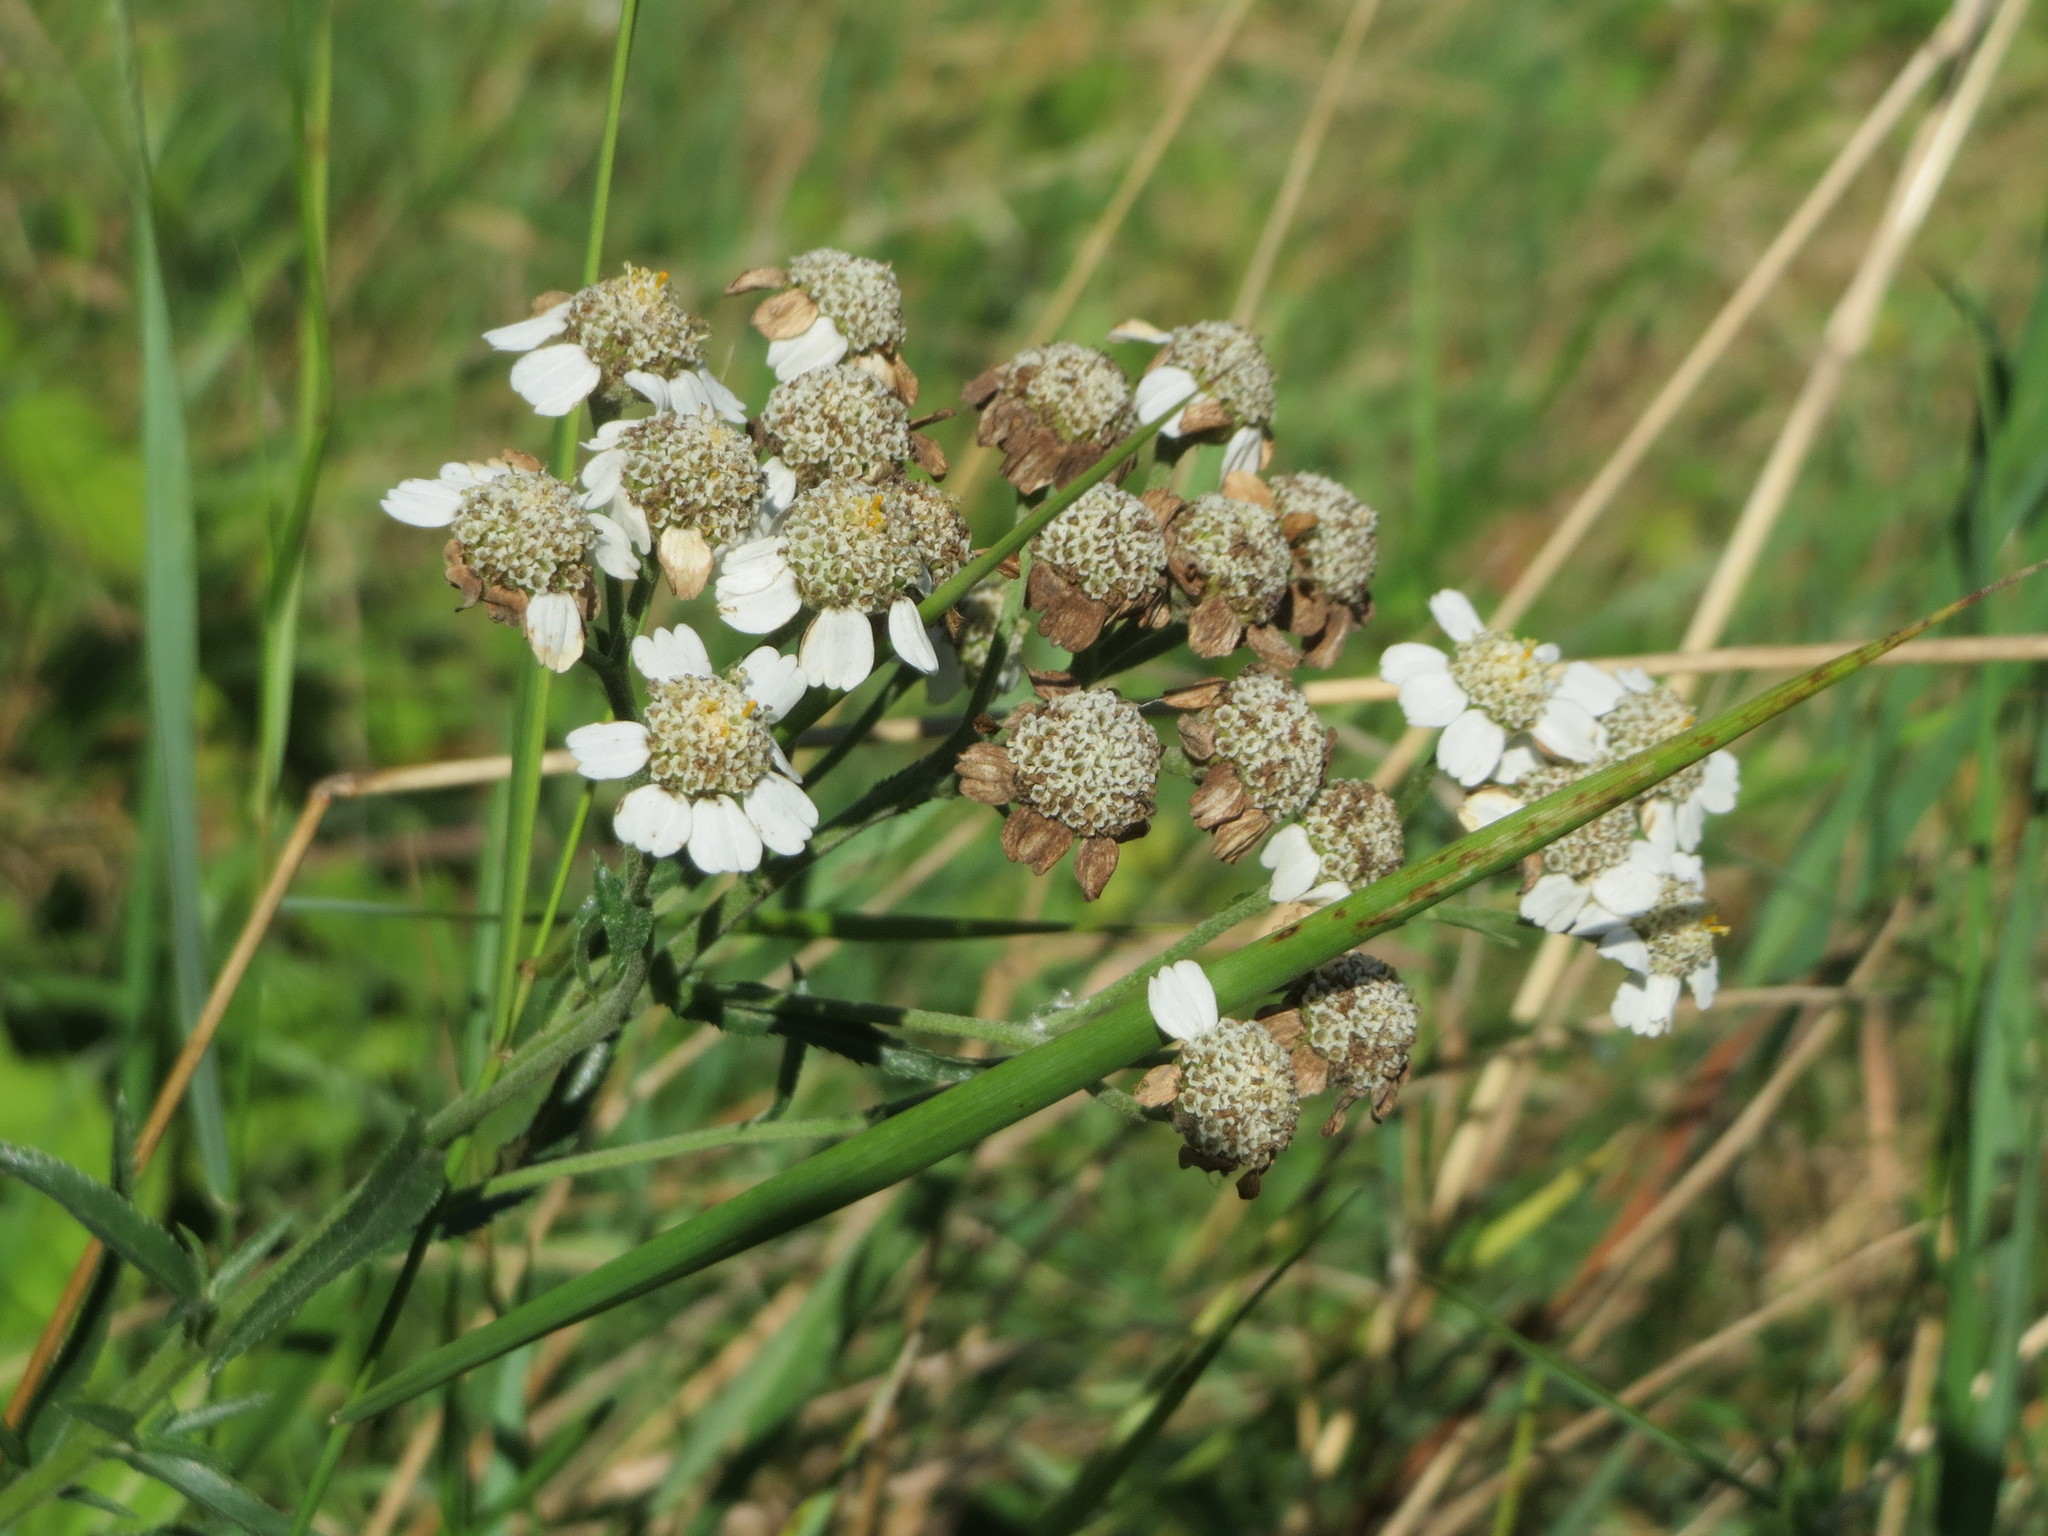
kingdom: Plantae
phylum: Tracheophyta
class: Magnoliopsida
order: Asterales
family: Asteraceae
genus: Achillea
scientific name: Achillea ptarmica
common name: Sneezeweed
